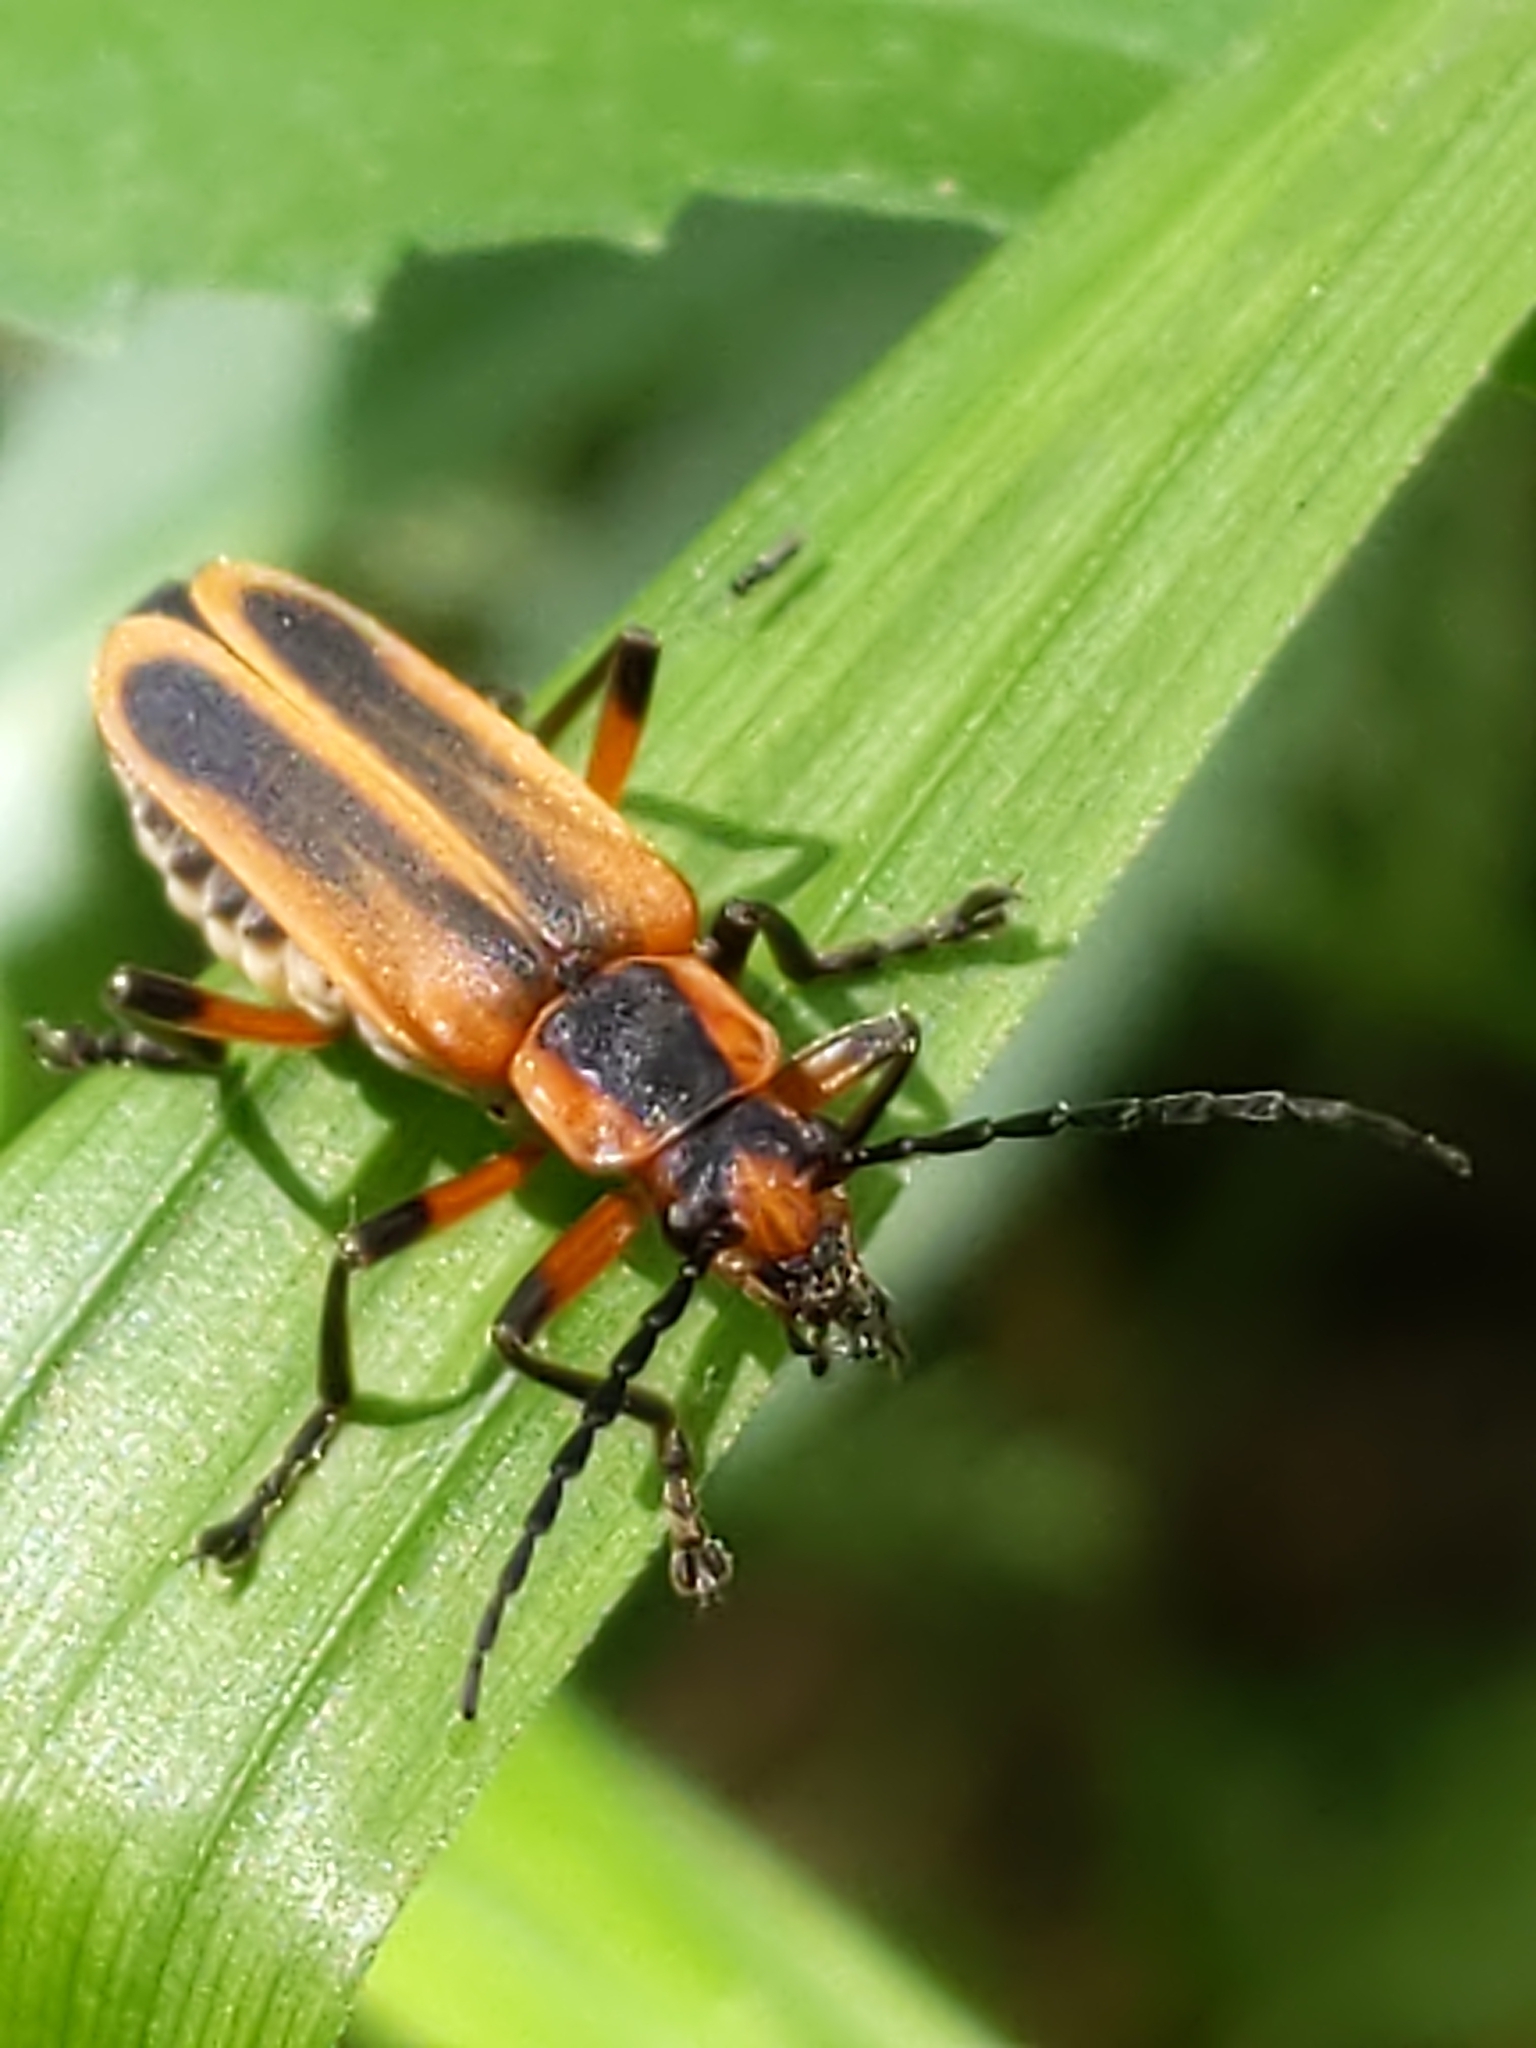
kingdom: Animalia
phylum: Arthropoda
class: Insecta
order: Coleoptera
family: Cantharidae
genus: Chauliognathus
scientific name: Chauliognathus marginatus
